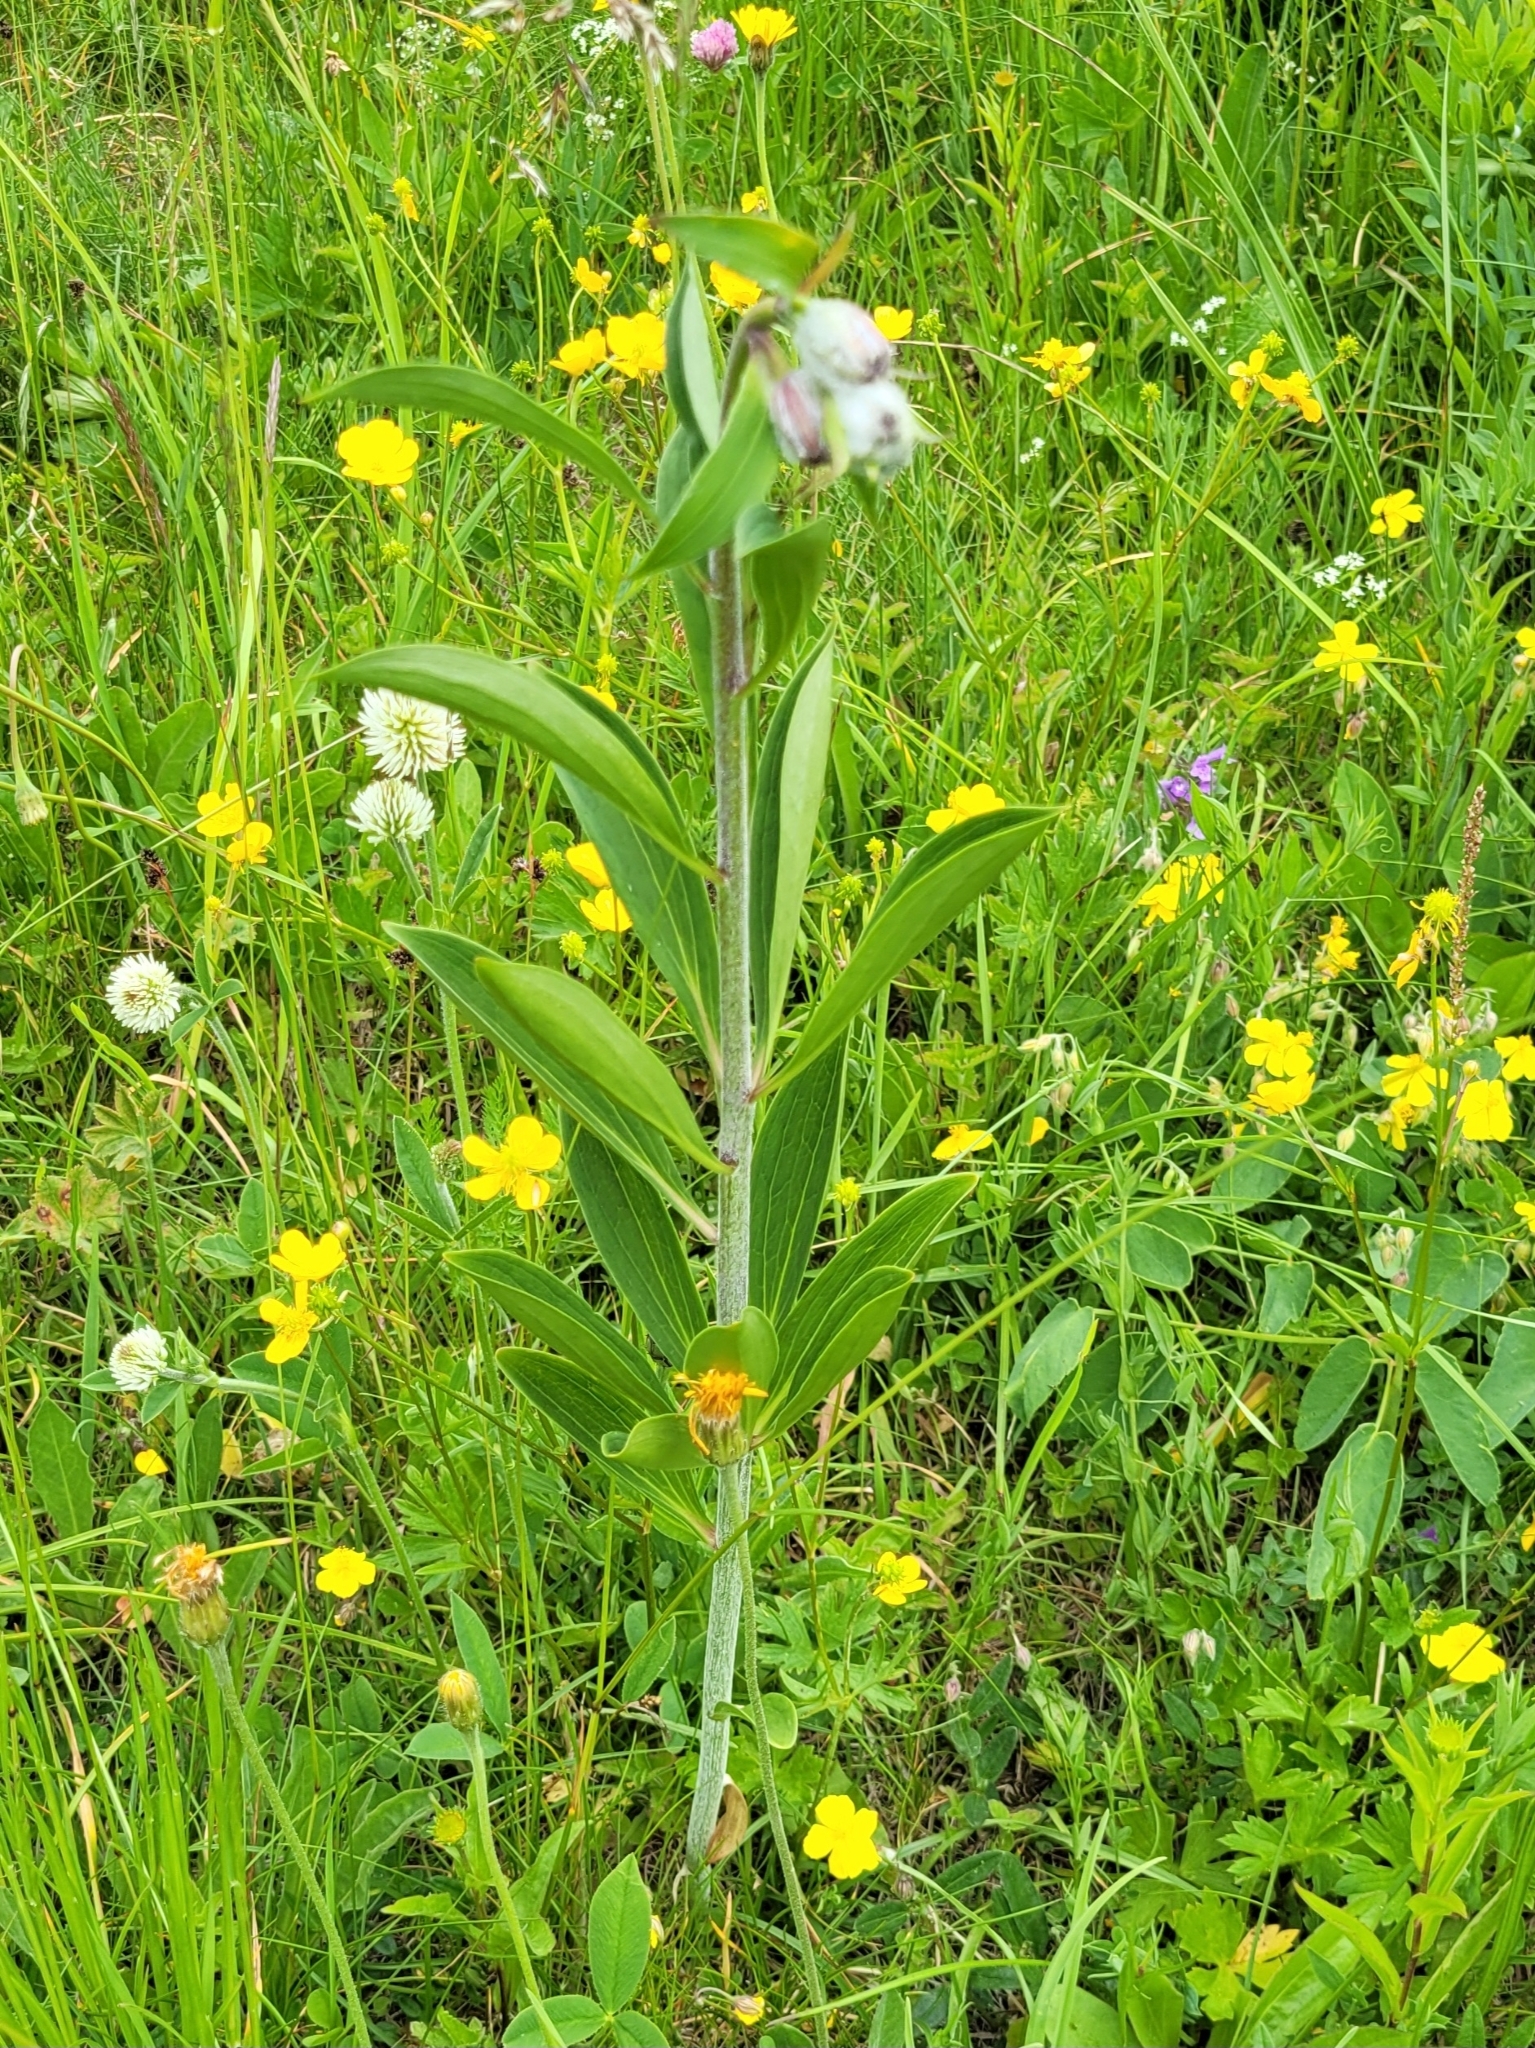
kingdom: Plantae
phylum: Tracheophyta
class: Liliopsida
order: Liliales
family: Liliaceae
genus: Lilium
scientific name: Lilium martagon
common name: Martagon lily
